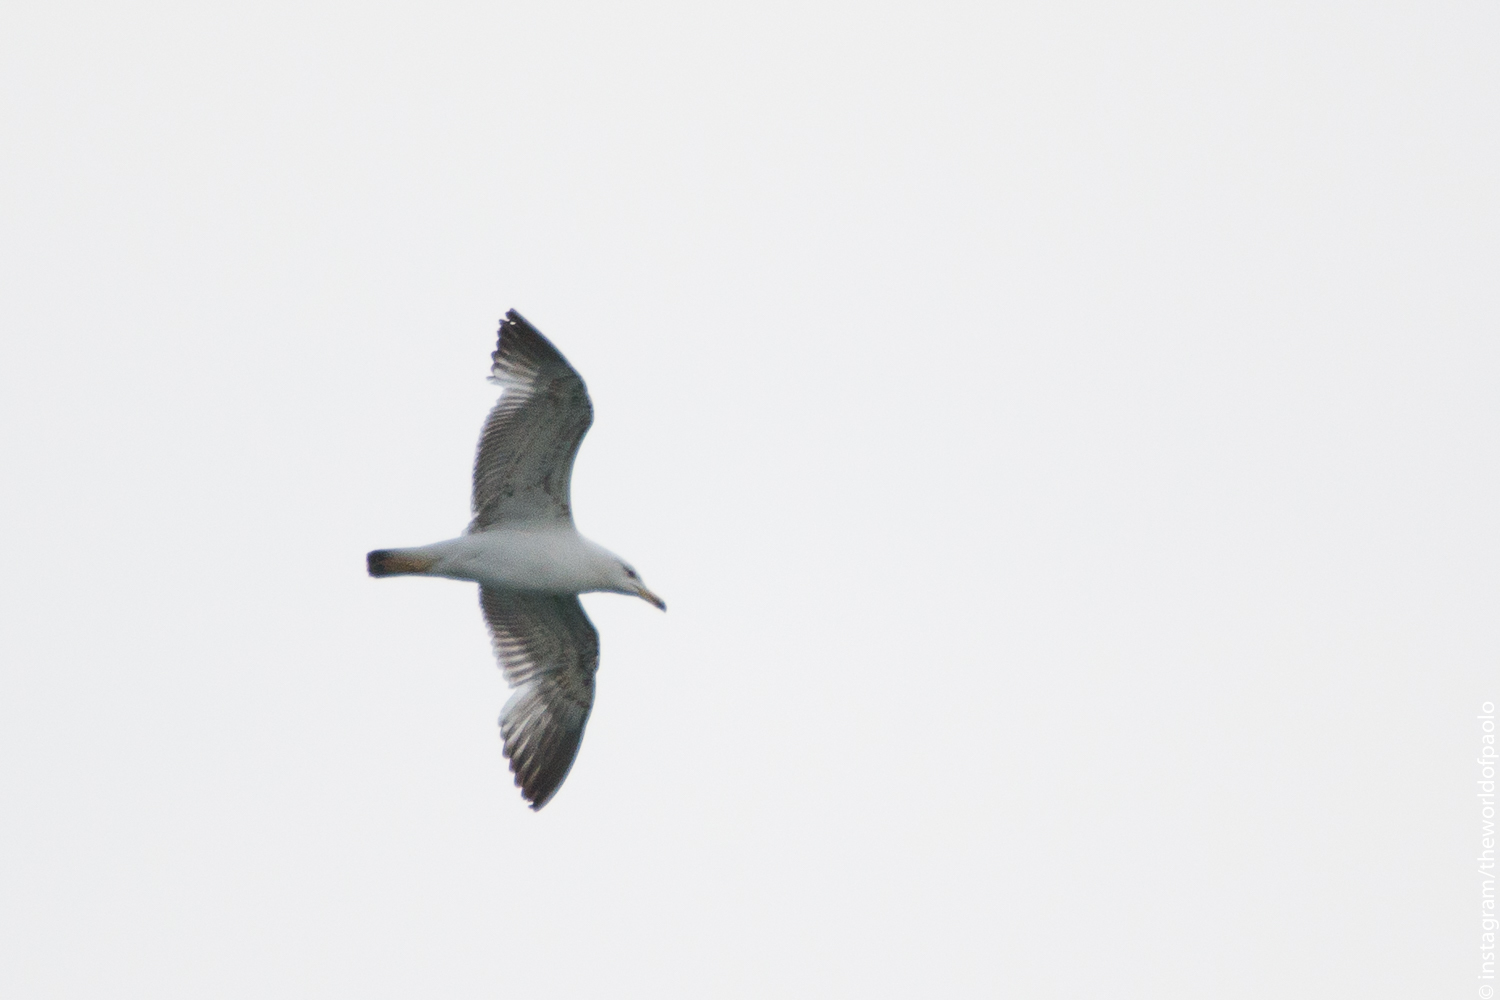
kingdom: Animalia
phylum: Chordata
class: Aves
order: Charadriiformes
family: Laridae
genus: Larus
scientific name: Larus michahellis
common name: Yellow-legged gull
